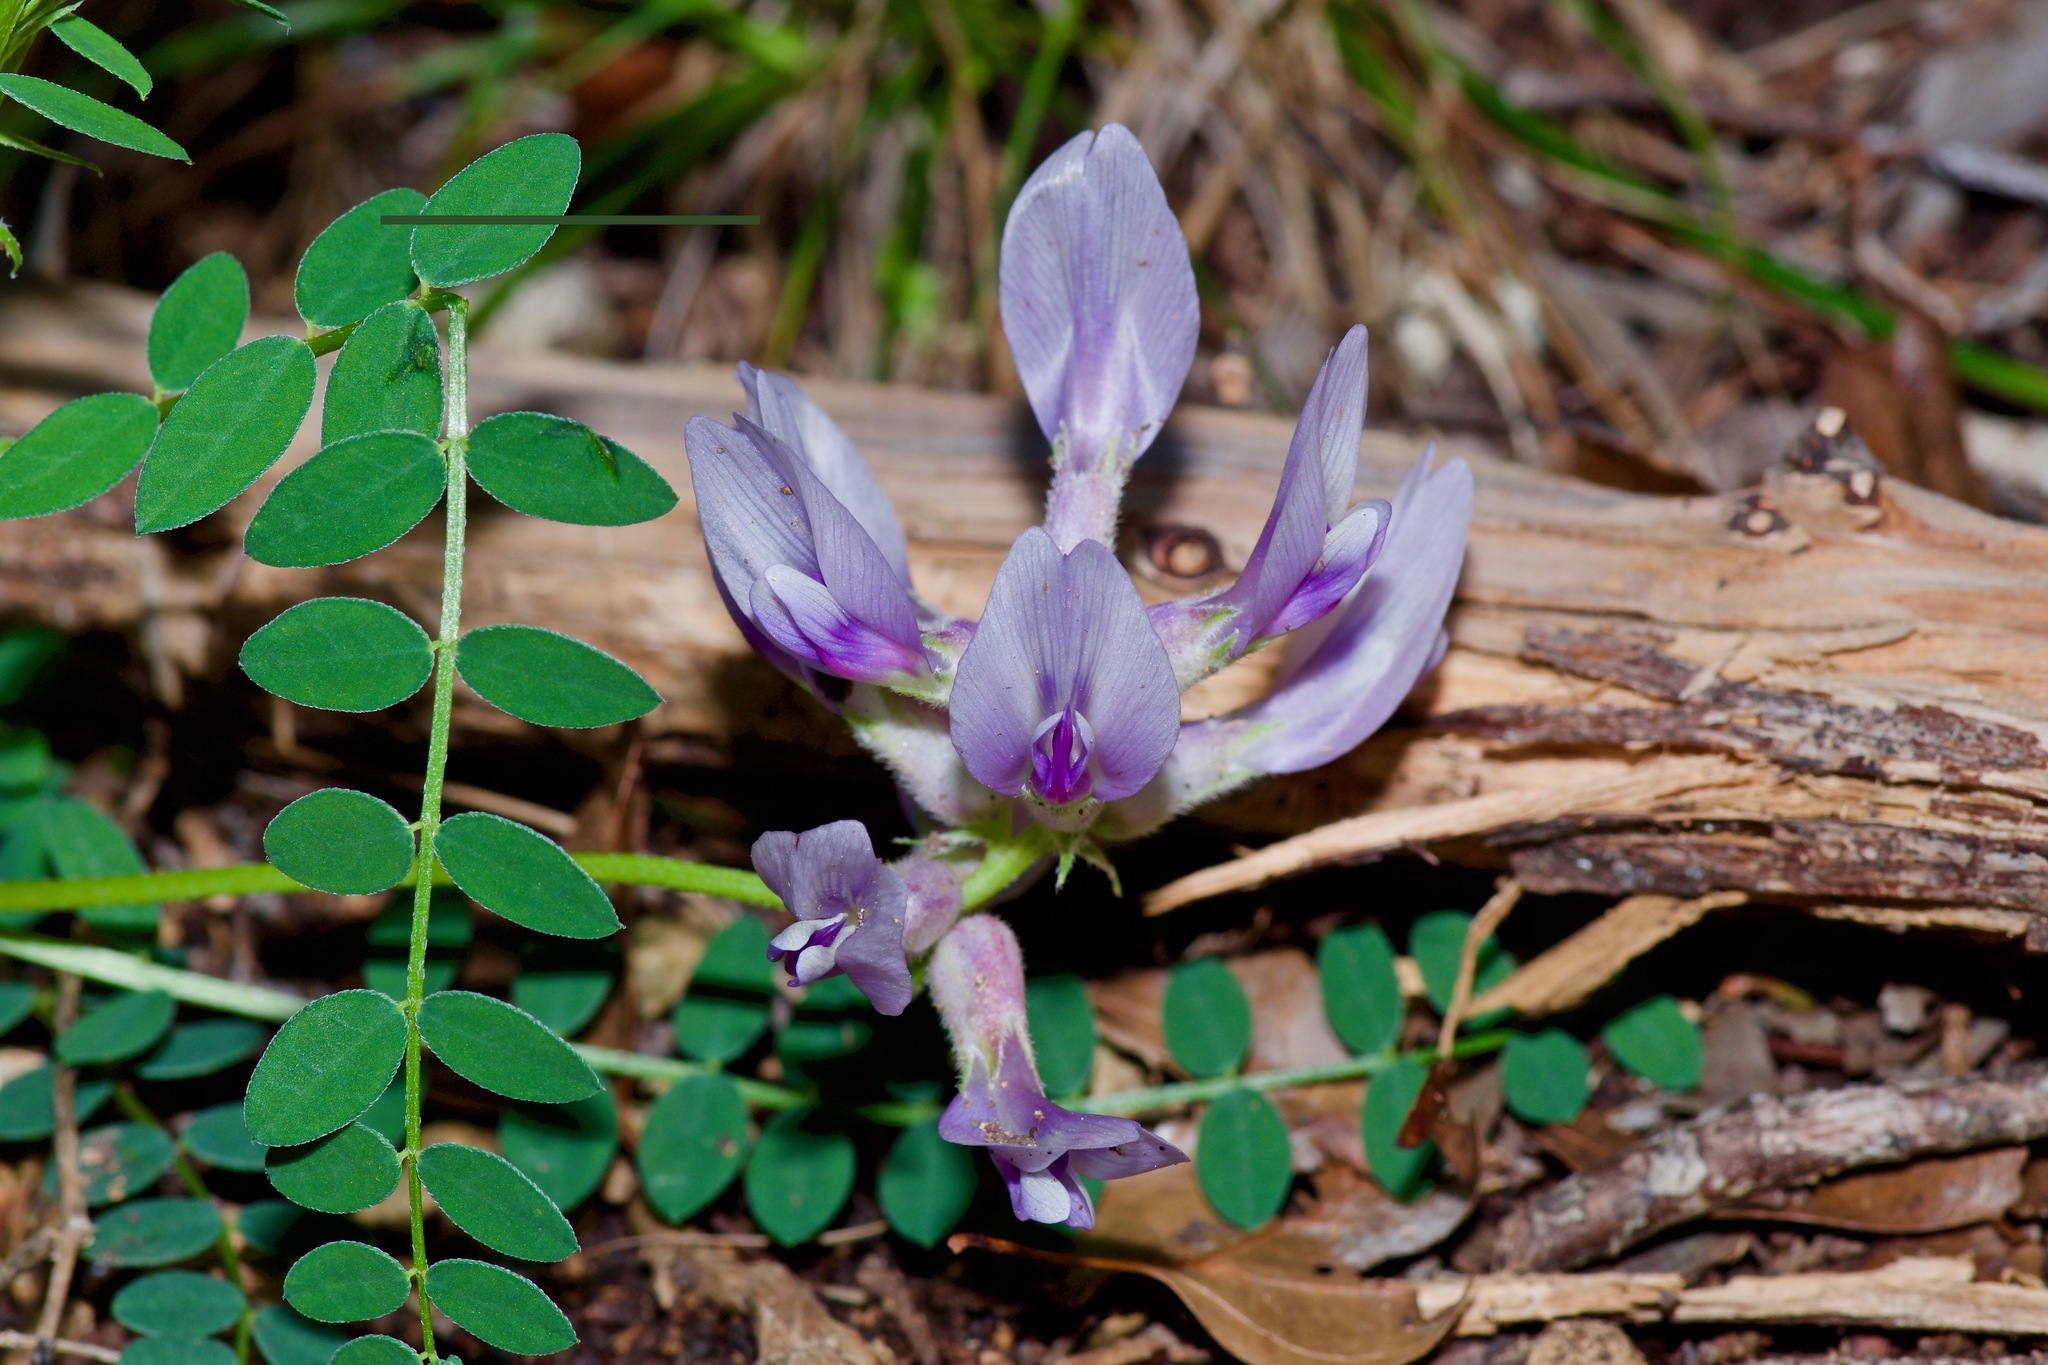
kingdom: Plantae
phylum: Tracheophyta
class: Magnoliopsida
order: Fabales
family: Fabaceae
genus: Astragalus
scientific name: Astragalus crassicarpus
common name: Ground-plum milk-vetch
